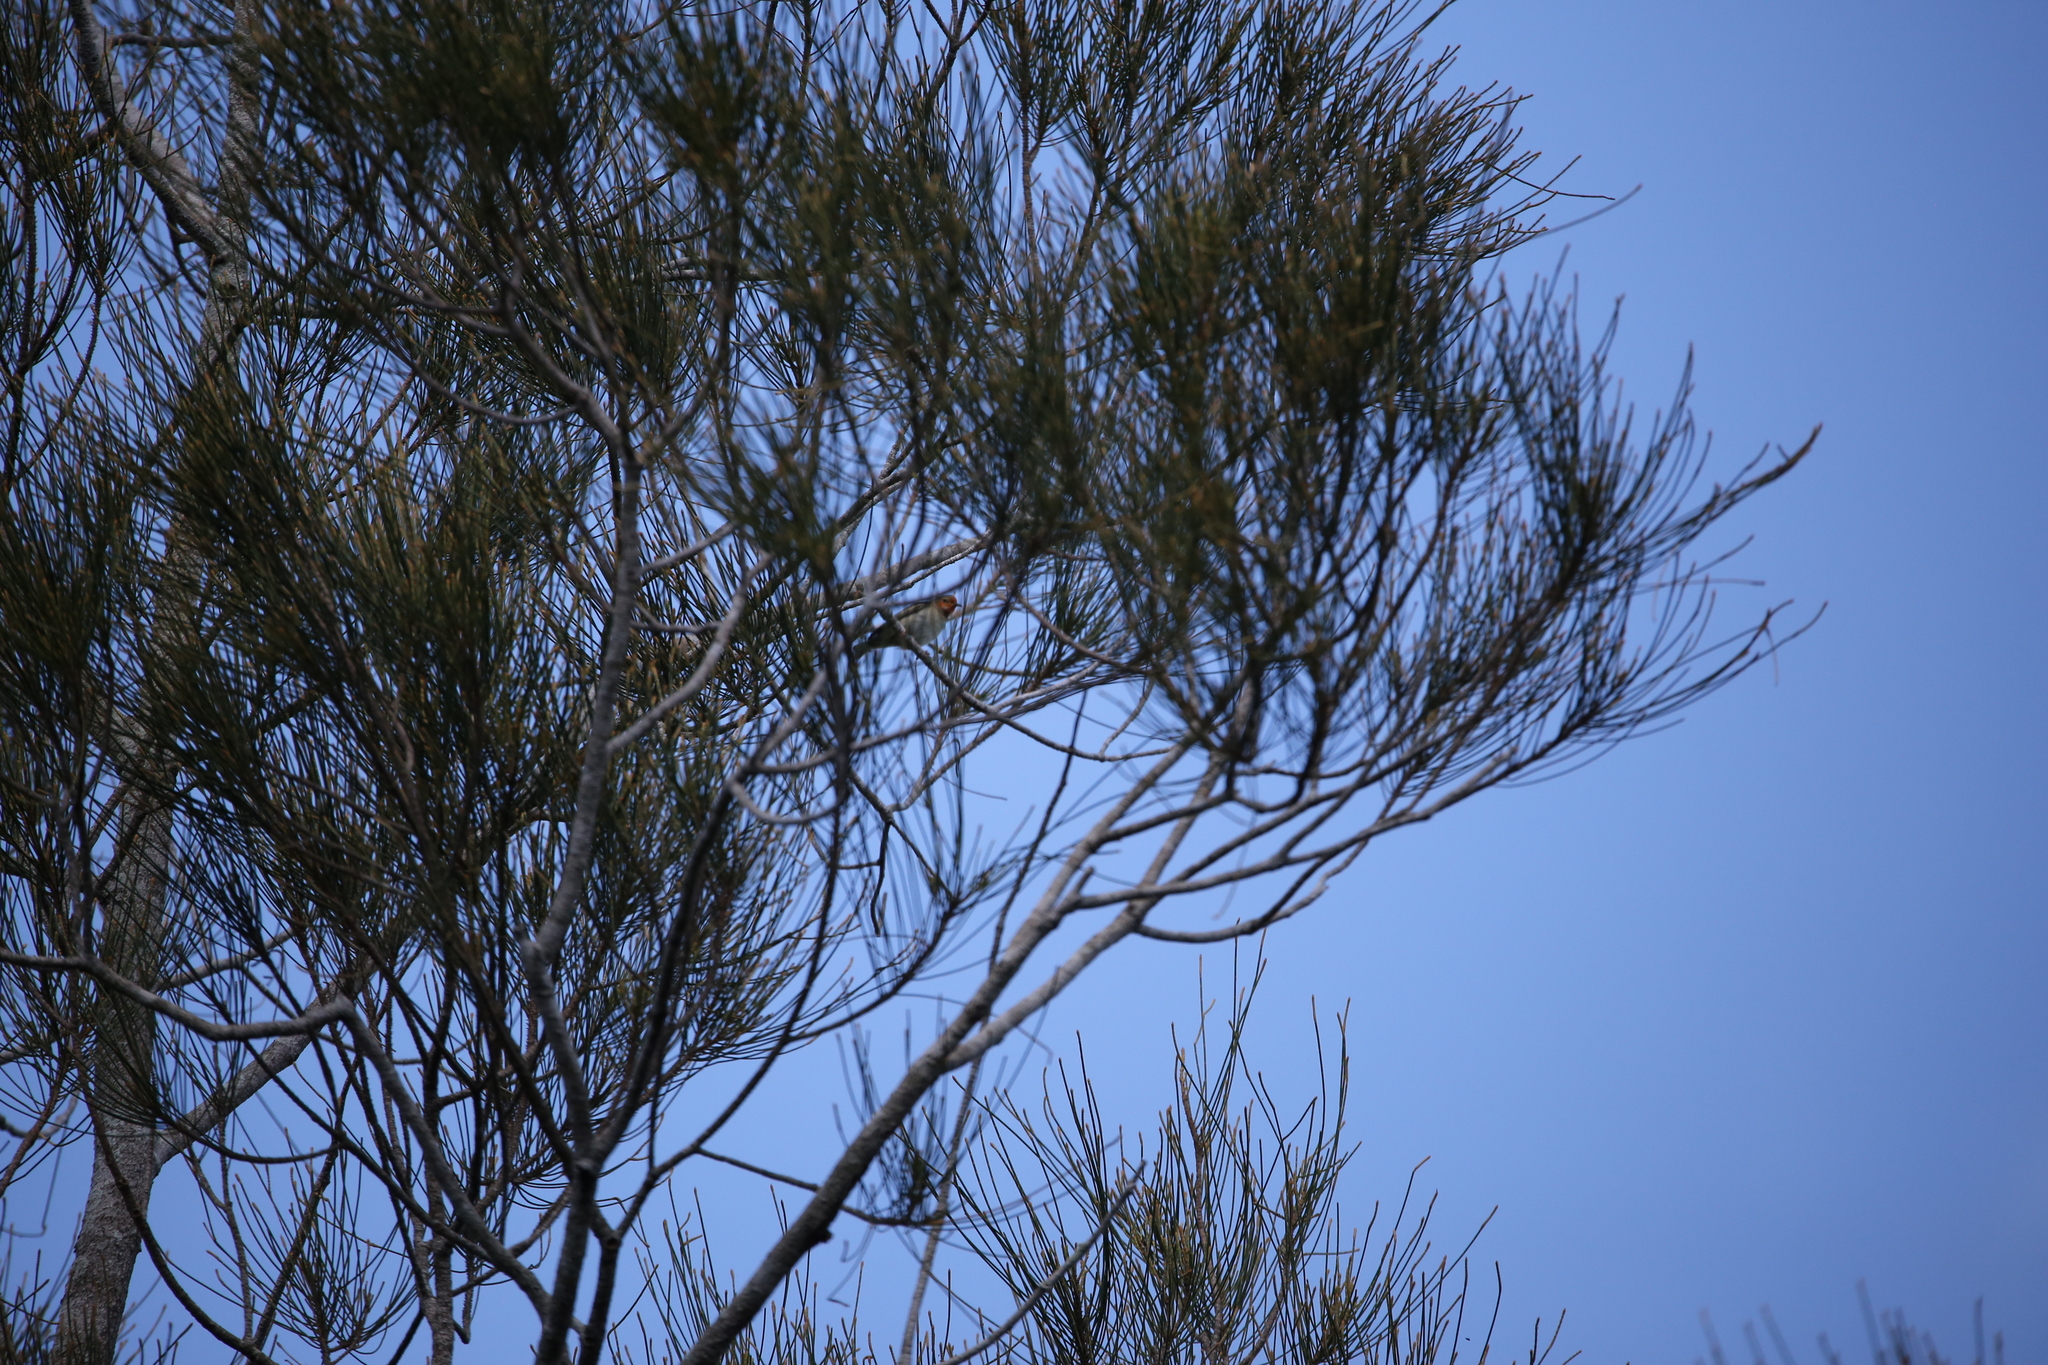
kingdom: Animalia
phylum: Chordata
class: Aves
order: Passeriformes
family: Meliphagidae
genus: Myzomela
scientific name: Myzomela sanguinolenta
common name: Scarlet myzomela
